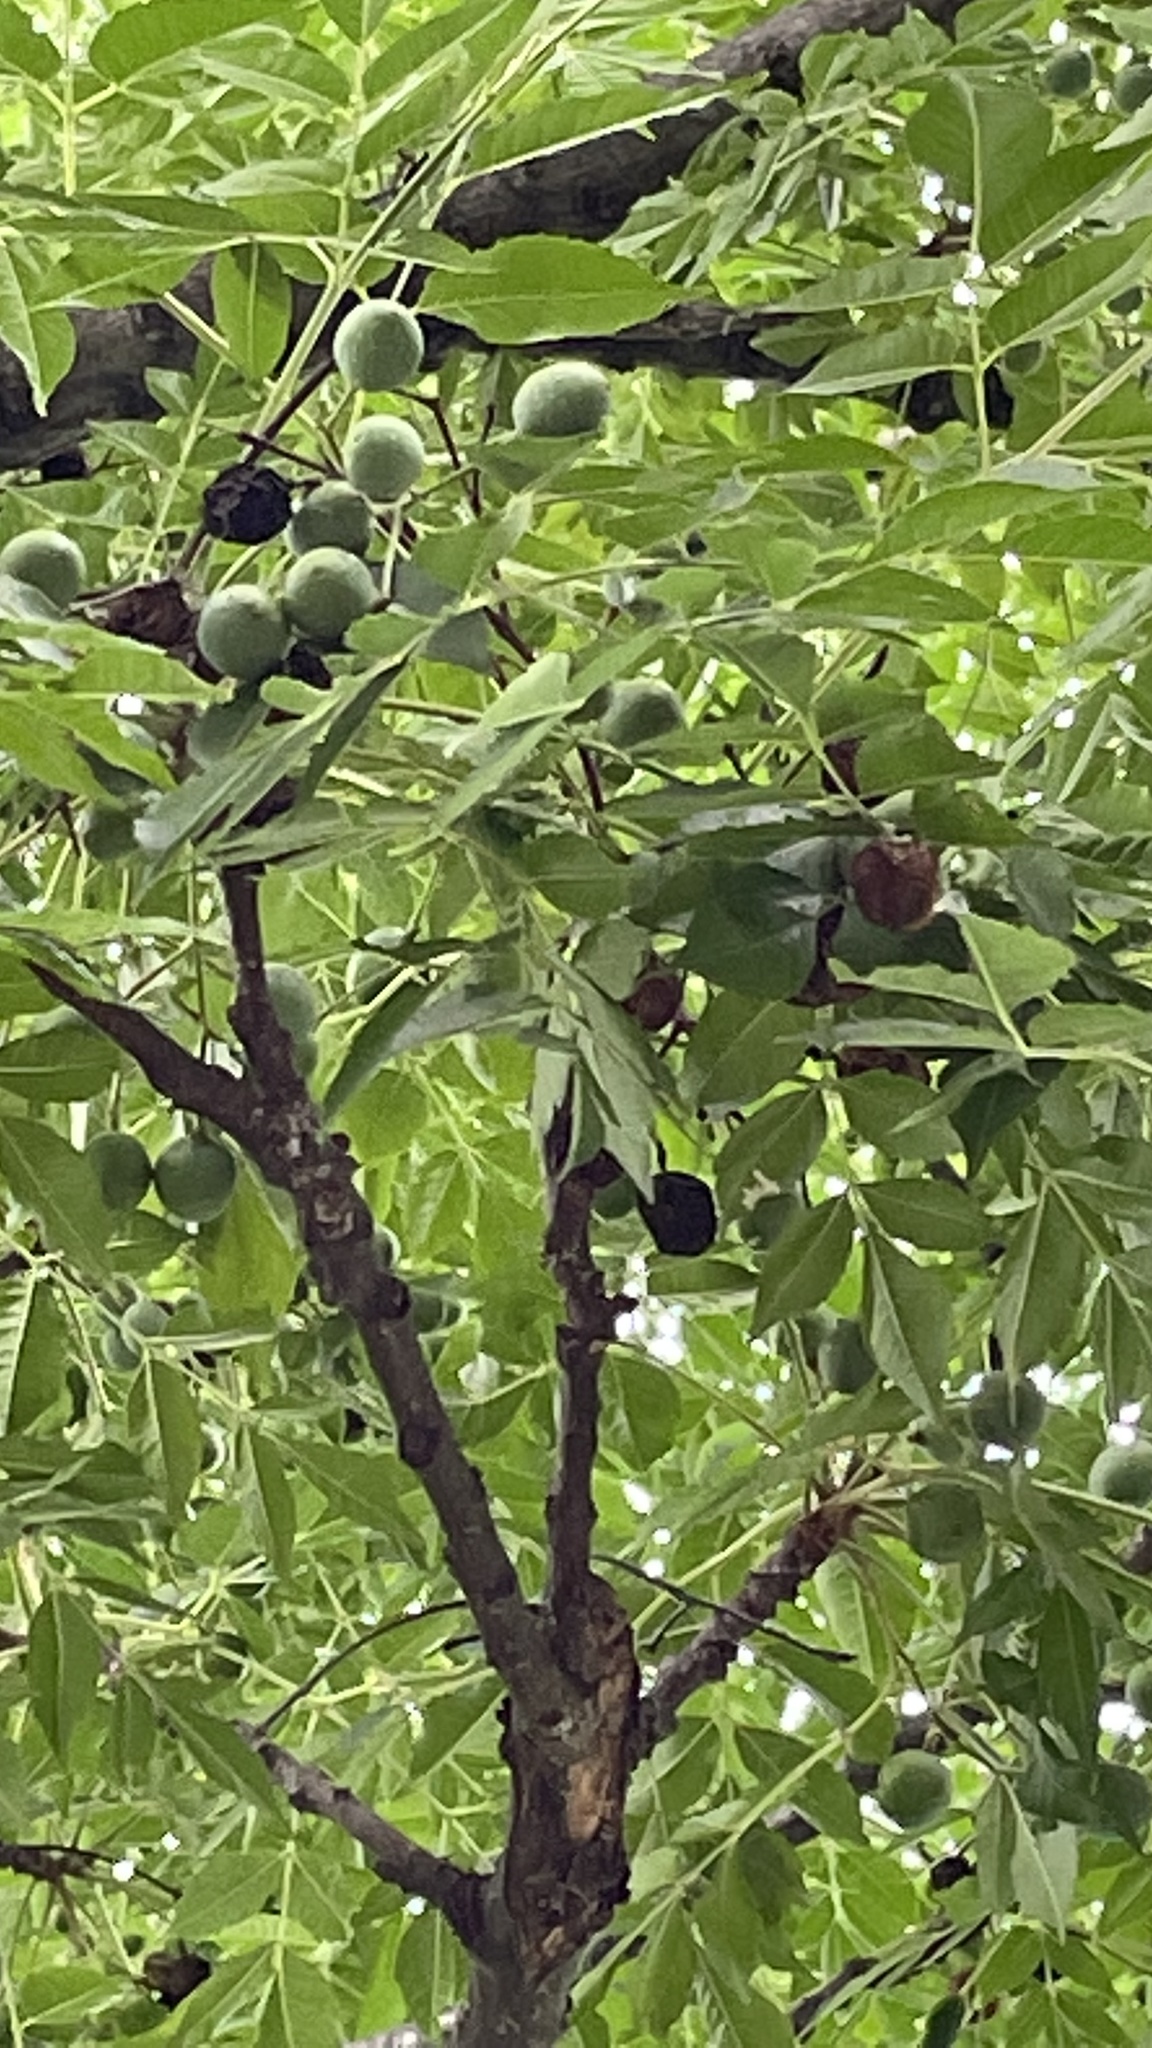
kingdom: Plantae
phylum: Tracheophyta
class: Magnoliopsida
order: Sapindales
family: Meliaceae
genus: Melia
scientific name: Melia azedarach
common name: Chinaberrytree
